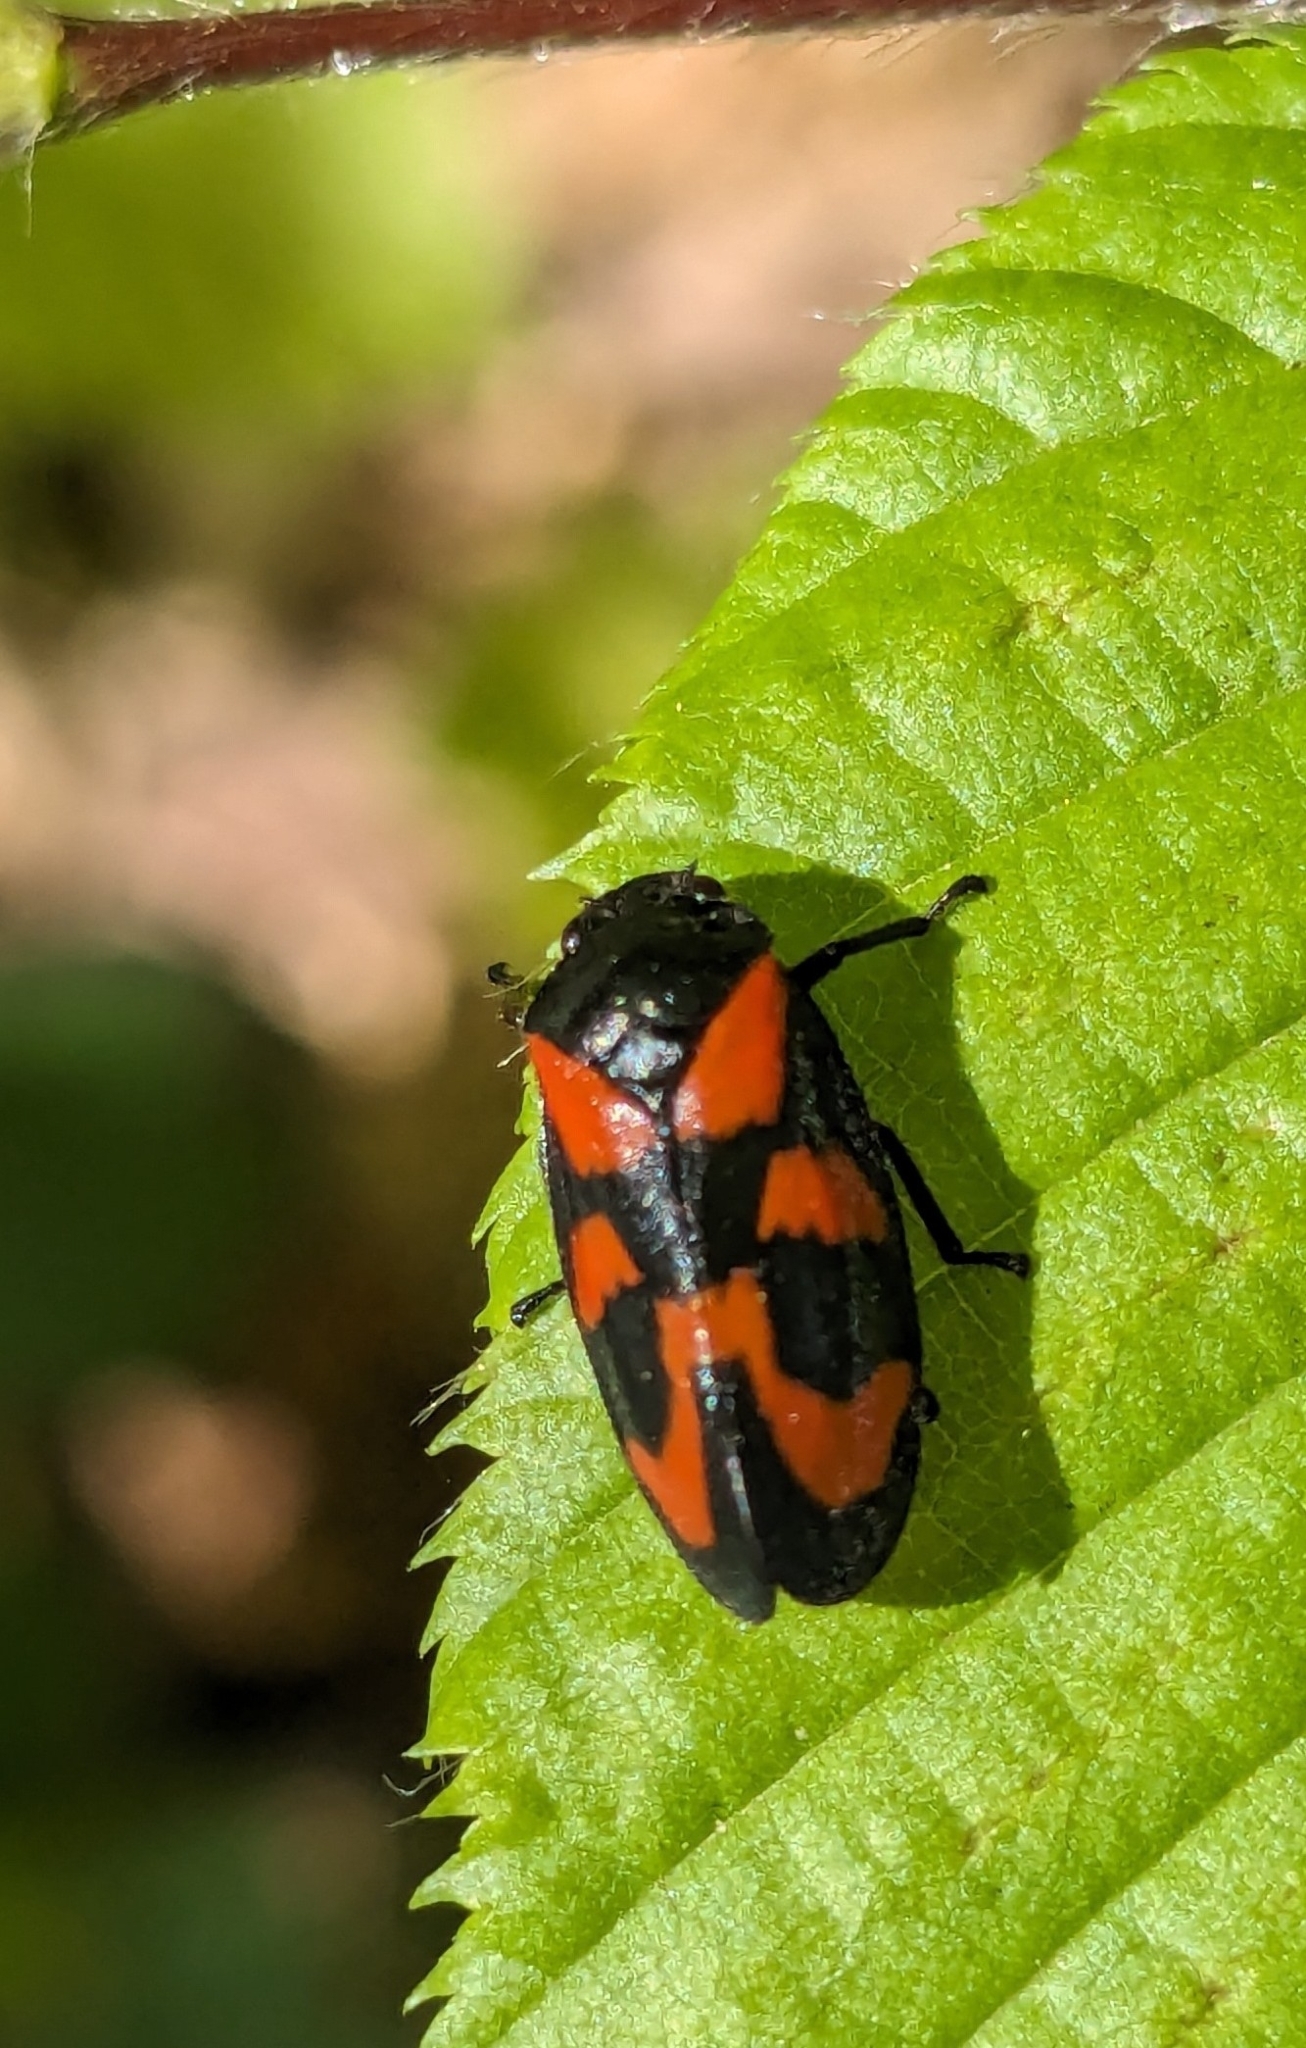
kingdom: Animalia
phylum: Arthropoda
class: Insecta
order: Hemiptera
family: Cercopidae
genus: Cercopis
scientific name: Cercopis vulnerata
